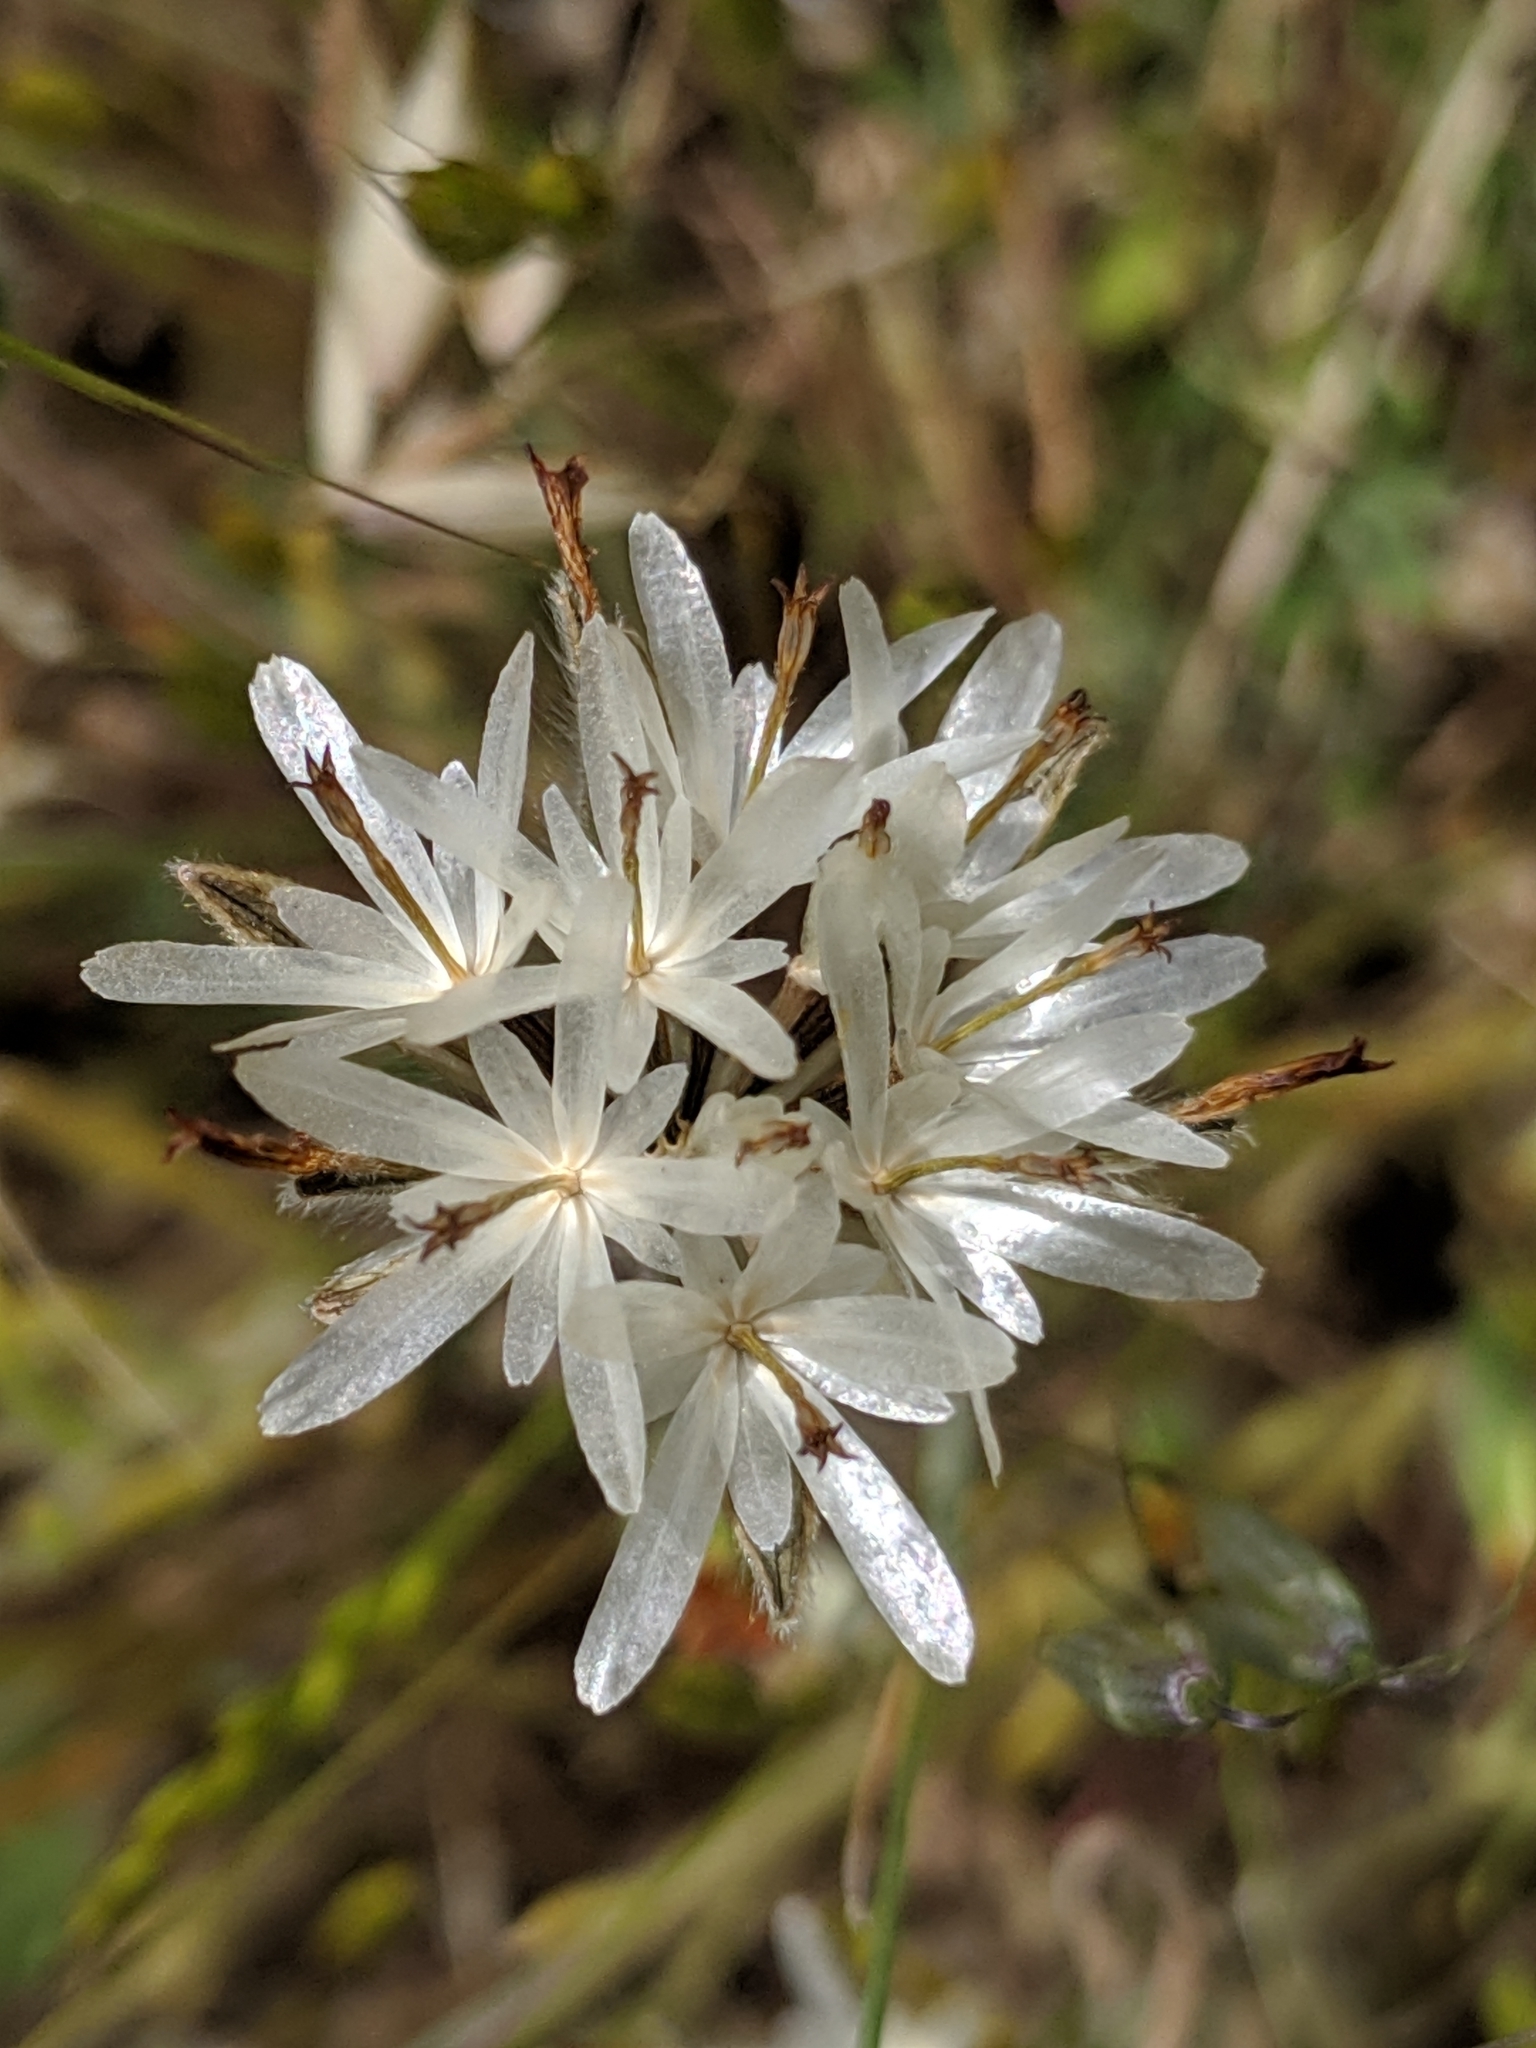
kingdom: Plantae
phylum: Tracheophyta
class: Magnoliopsida
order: Asterales
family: Asteraceae
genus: Achyrachaena
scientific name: Achyrachaena mollis
